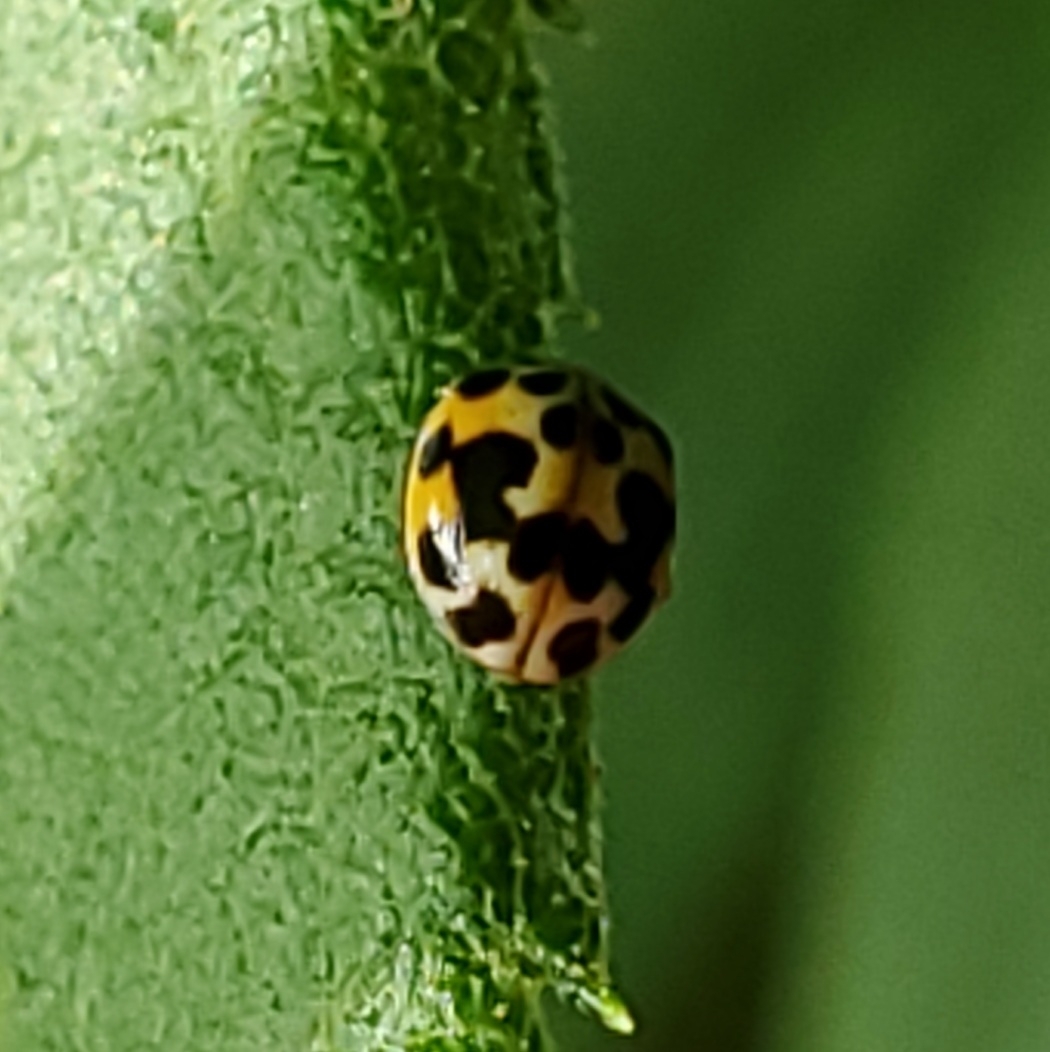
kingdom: Animalia
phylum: Arthropoda
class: Insecta
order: Coleoptera
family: Coccinellidae
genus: Psyllobora
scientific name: Psyllobora vigintimaculata
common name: Ladybird beetle
